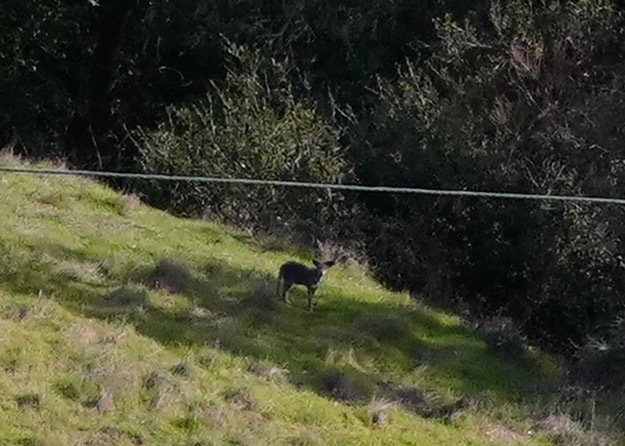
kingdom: Animalia
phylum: Chordata
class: Mammalia
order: Carnivora
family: Canidae
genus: Canis
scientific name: Canis latrans
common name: Coyote
